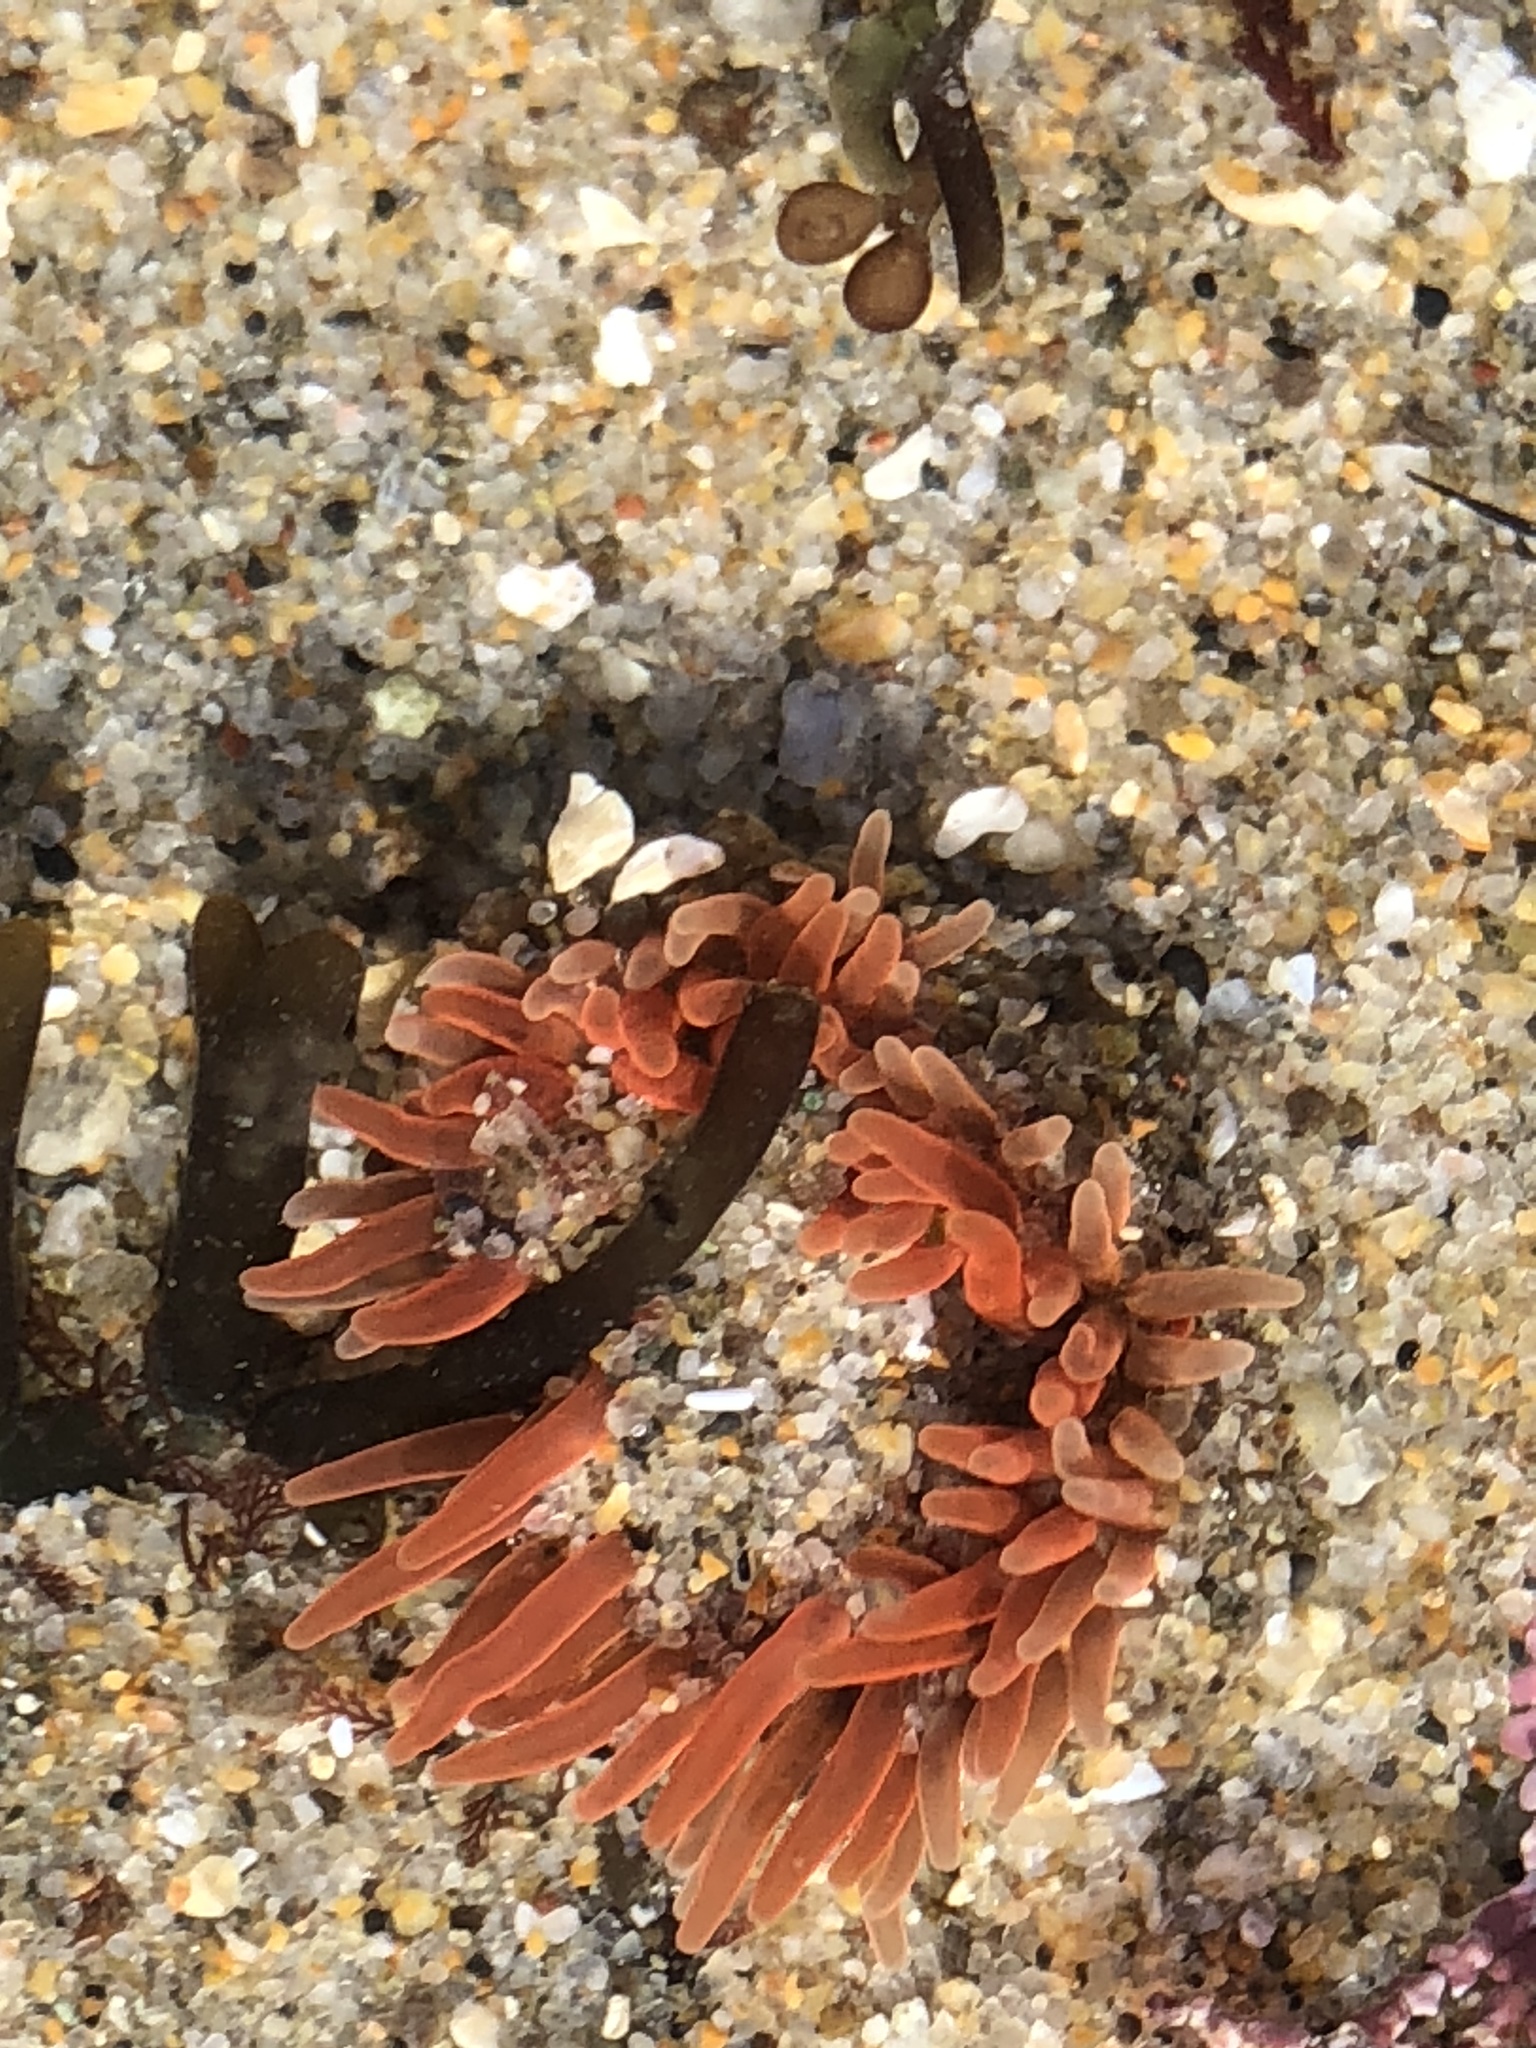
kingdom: Animalia
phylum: Cnidaria
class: Anthozoa
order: Actiniaria
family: Actiniidae
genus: Anthopleura
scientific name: Anthopleura artemisia
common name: Buried sea anemone
